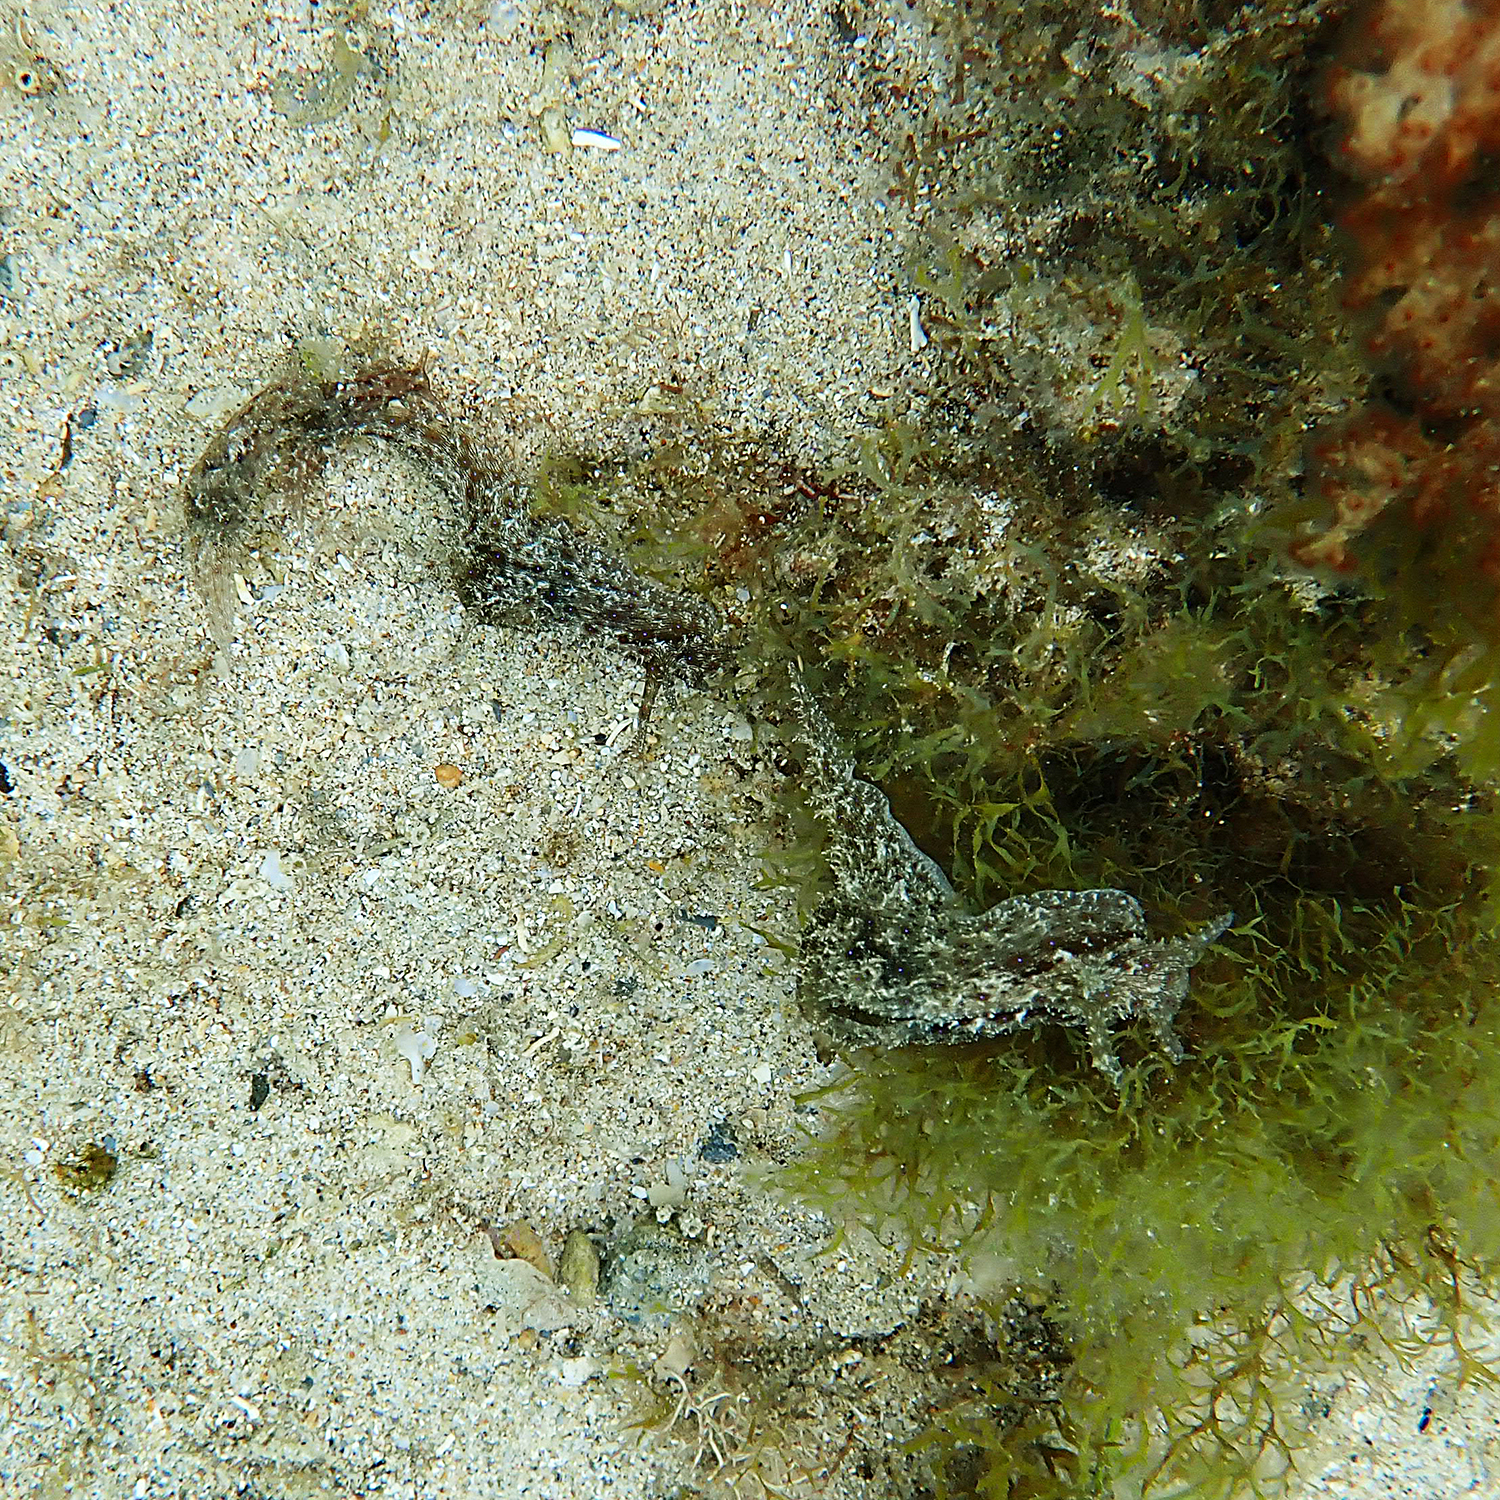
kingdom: Animalia
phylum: Mollusca
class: Gastropoda
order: Aplysiida
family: Aplysiidae
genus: Stylocheilus
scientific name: Stylocheilus striatus
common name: Striated seahare
